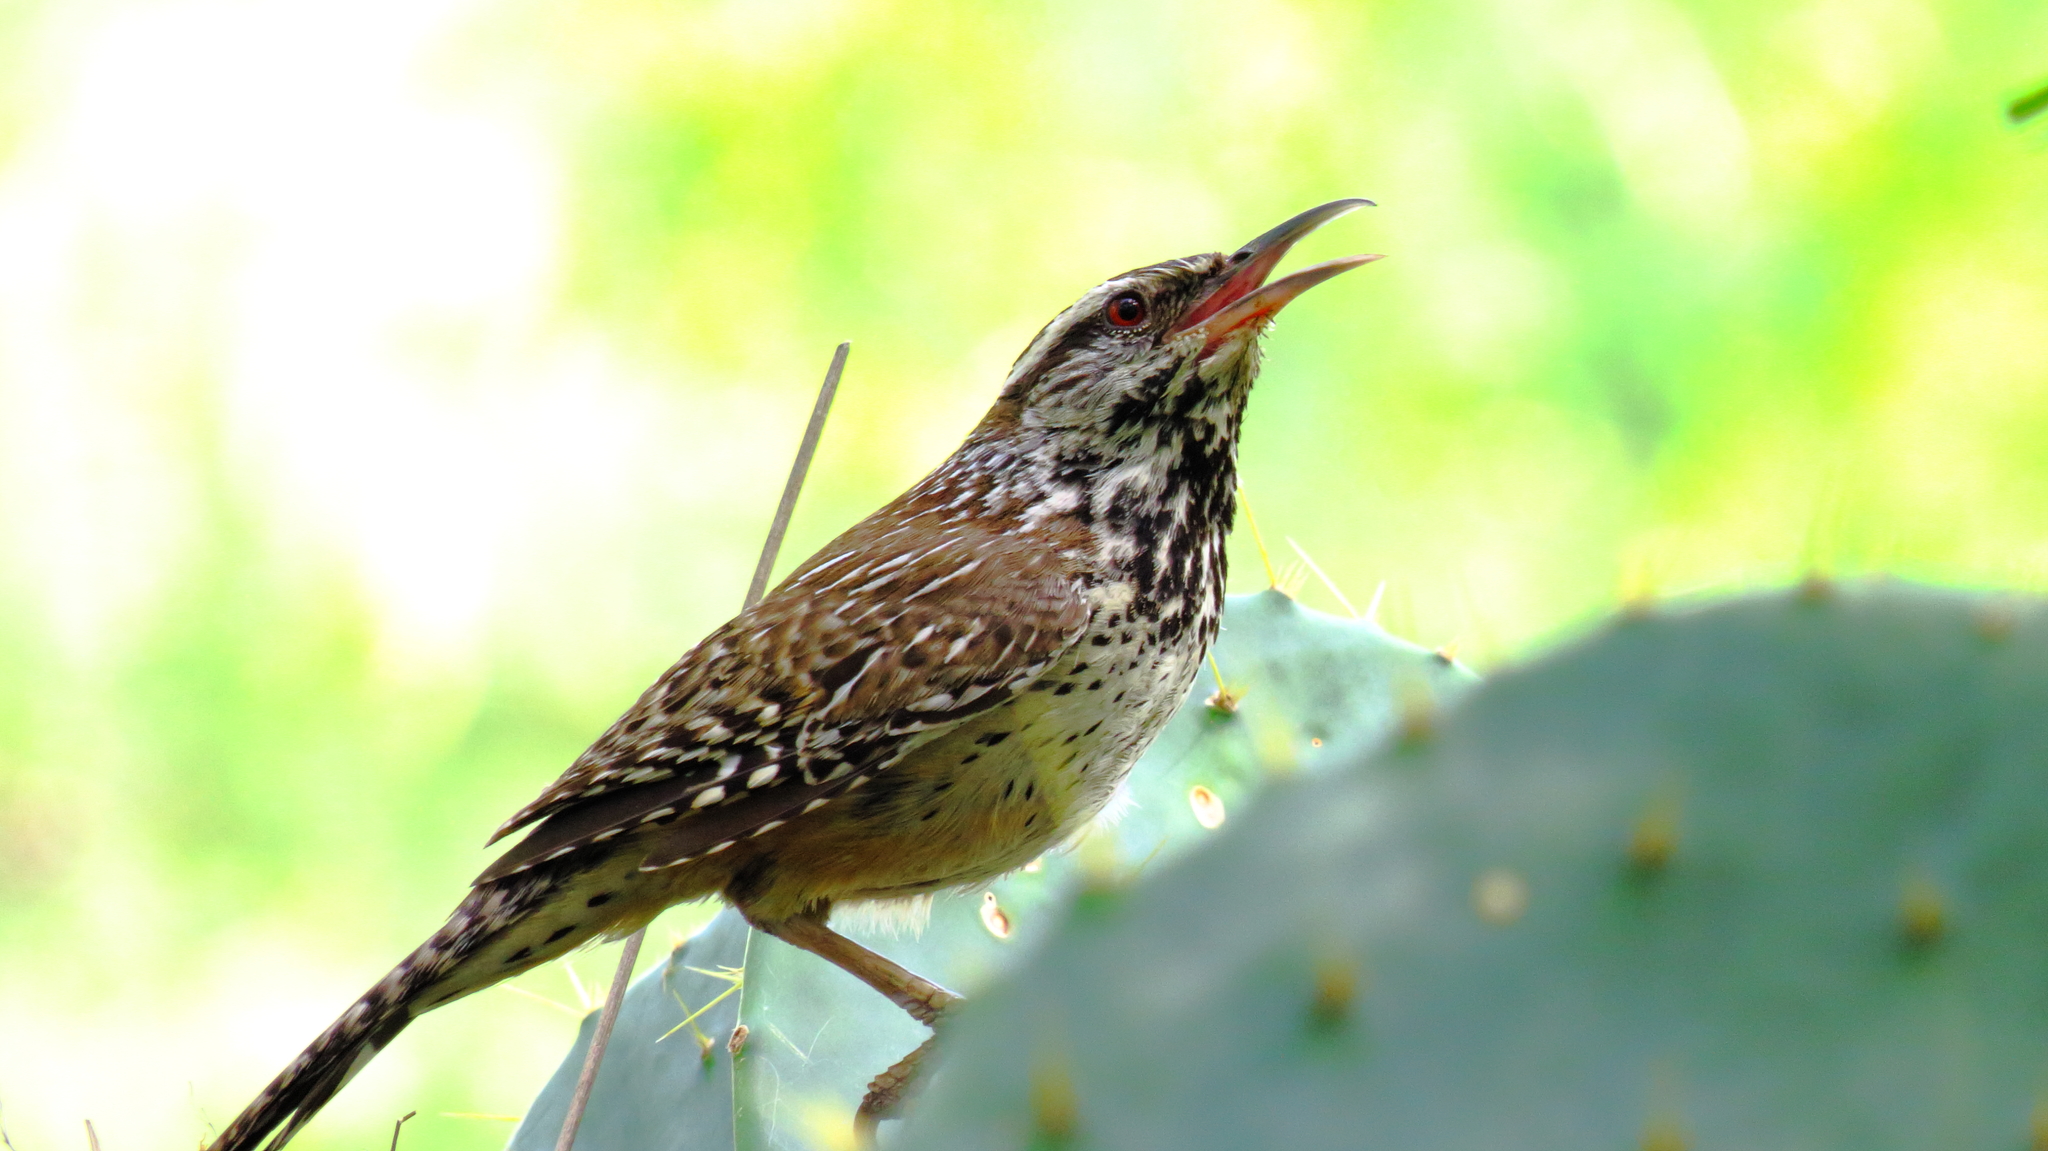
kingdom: Animalia
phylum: Chordata
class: Aves
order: Passeriformes
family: Troglodytidae
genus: Campylorhynchus
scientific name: Campylorhynchus brunneicapillus
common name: Cactus wren
